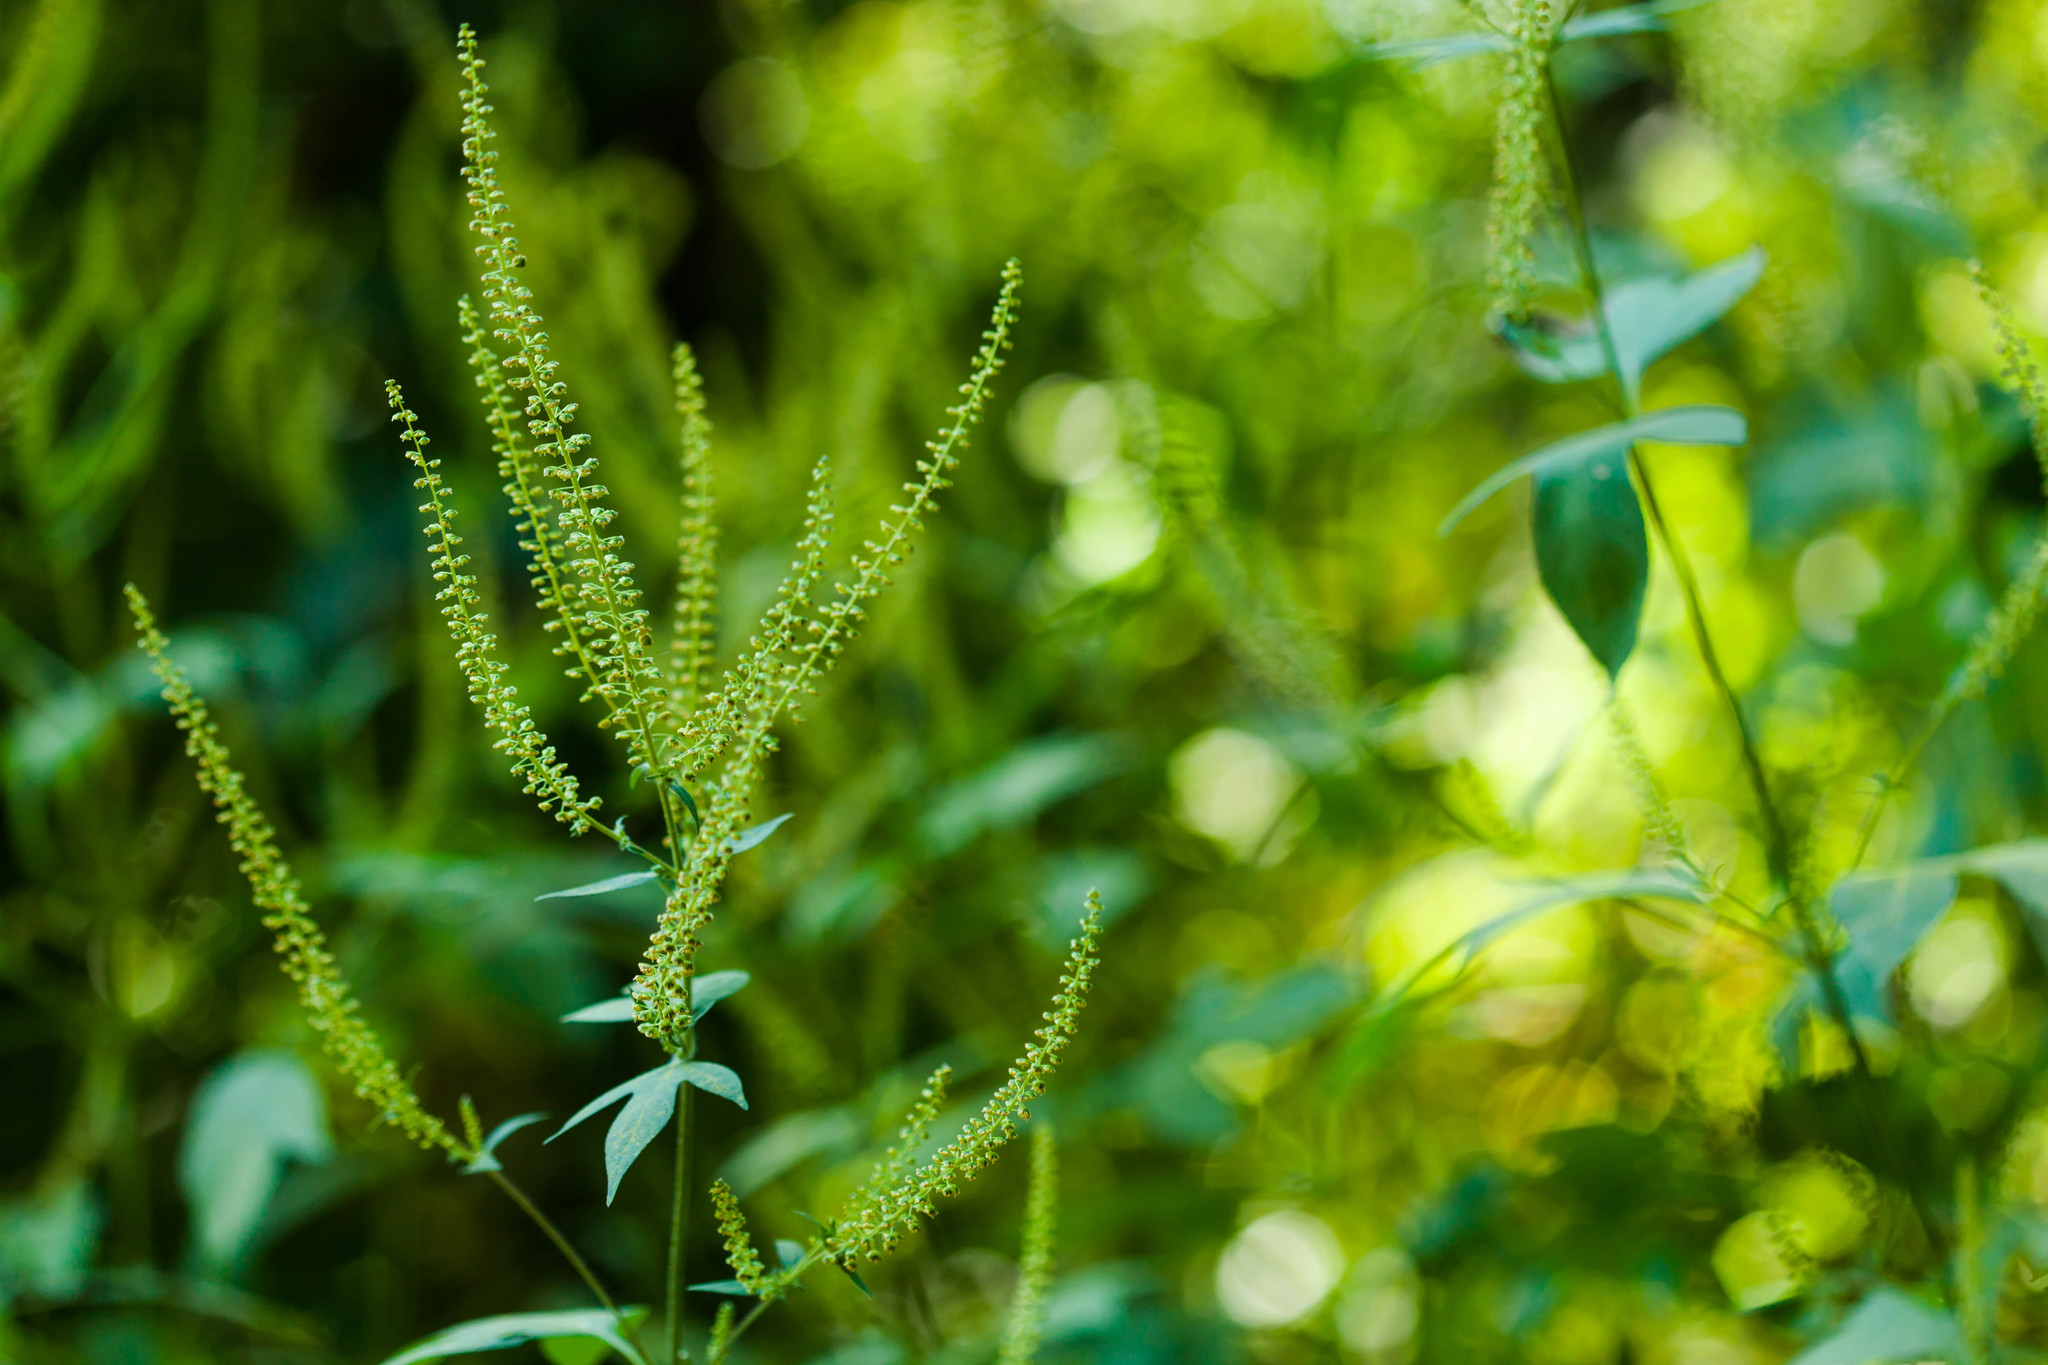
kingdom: Plantae
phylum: Tracheophyta
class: Magnoliopsida
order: Asterales
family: Asteraceae
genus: Ambrosia
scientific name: Ambrosia trifida
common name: Giant ragweed
